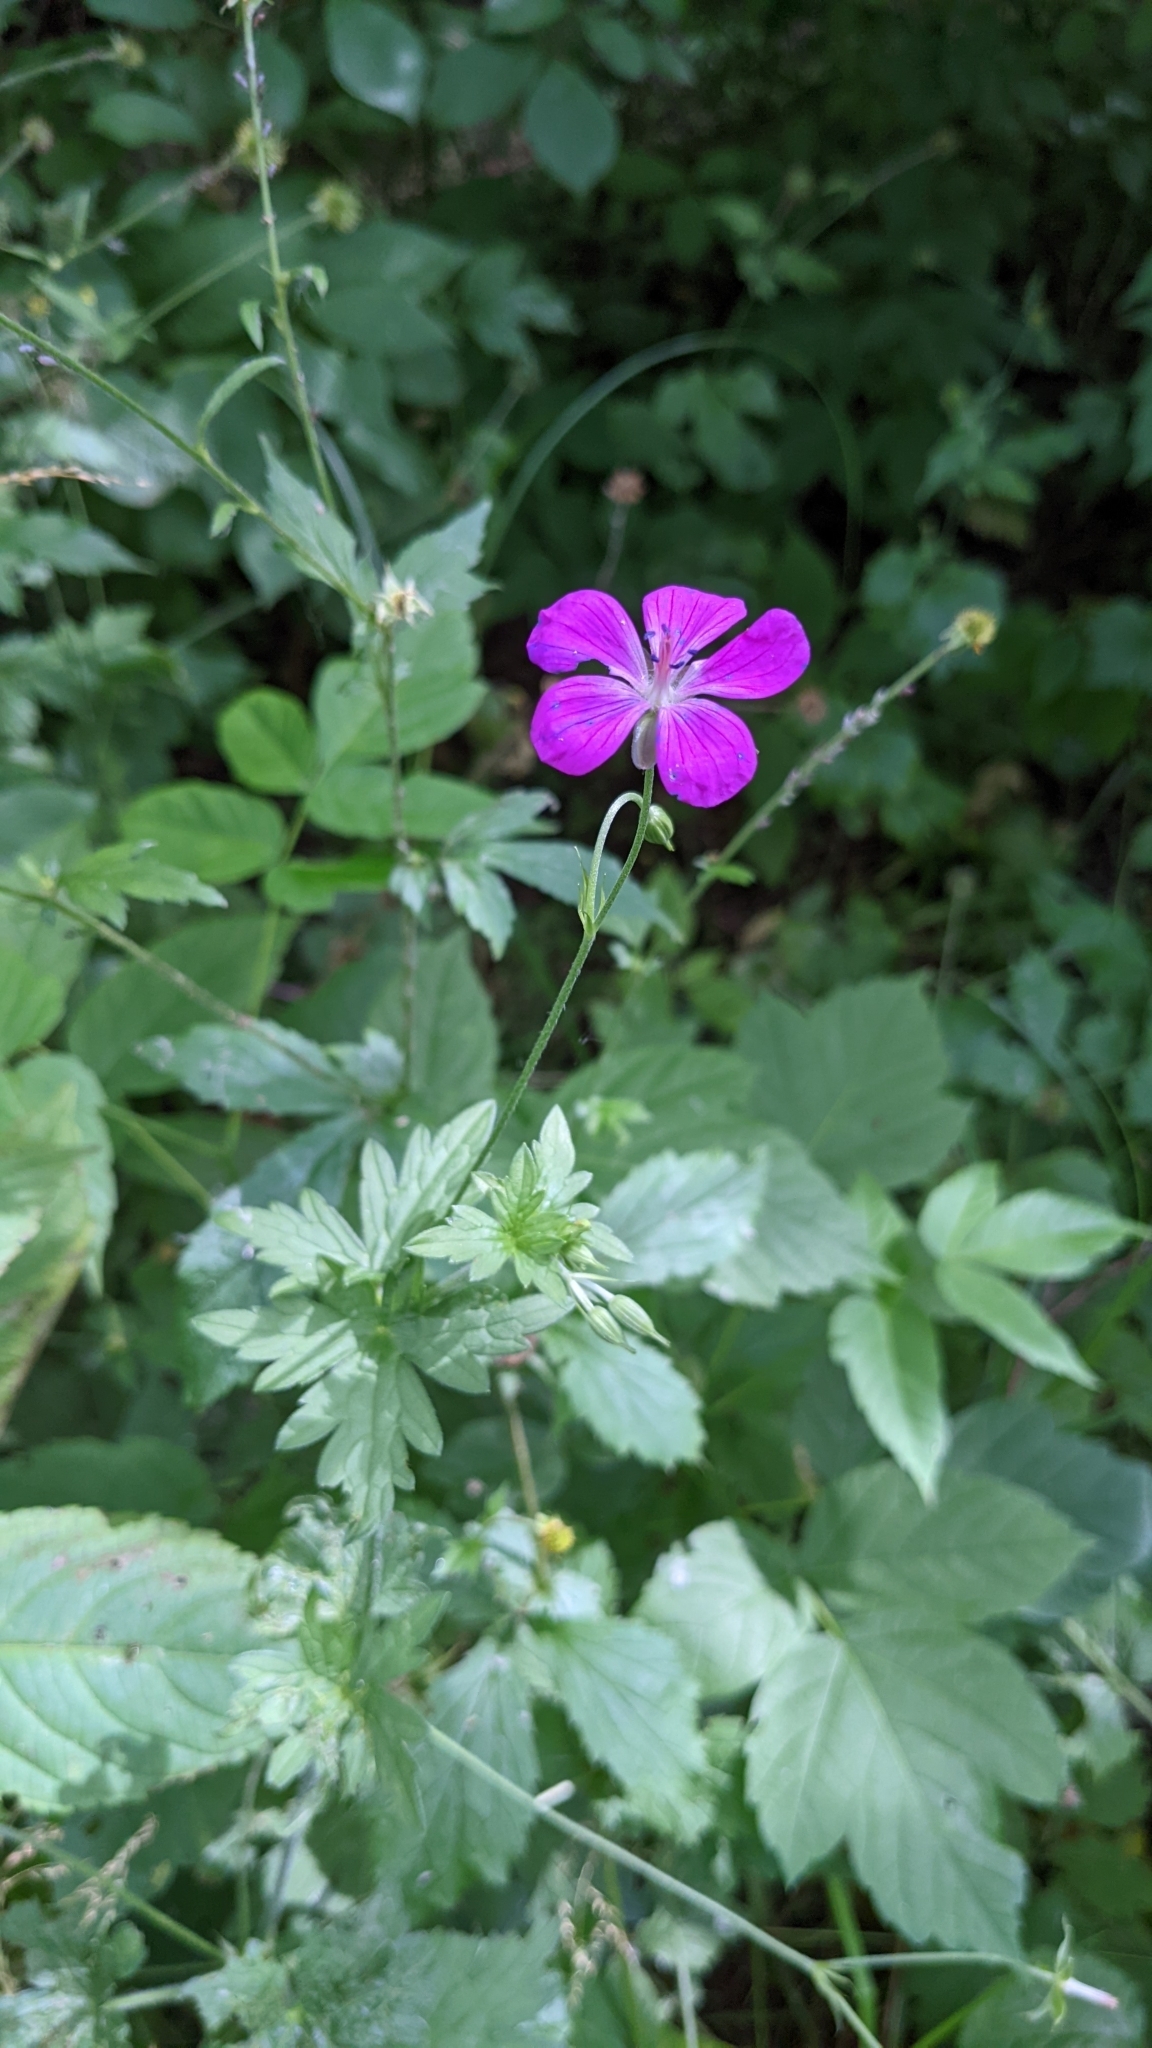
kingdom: Plantae
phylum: Tracheophyta
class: Magnoliopsida
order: Geraniales
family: Geraniaceae
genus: Geranium
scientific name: Geranium palustre
